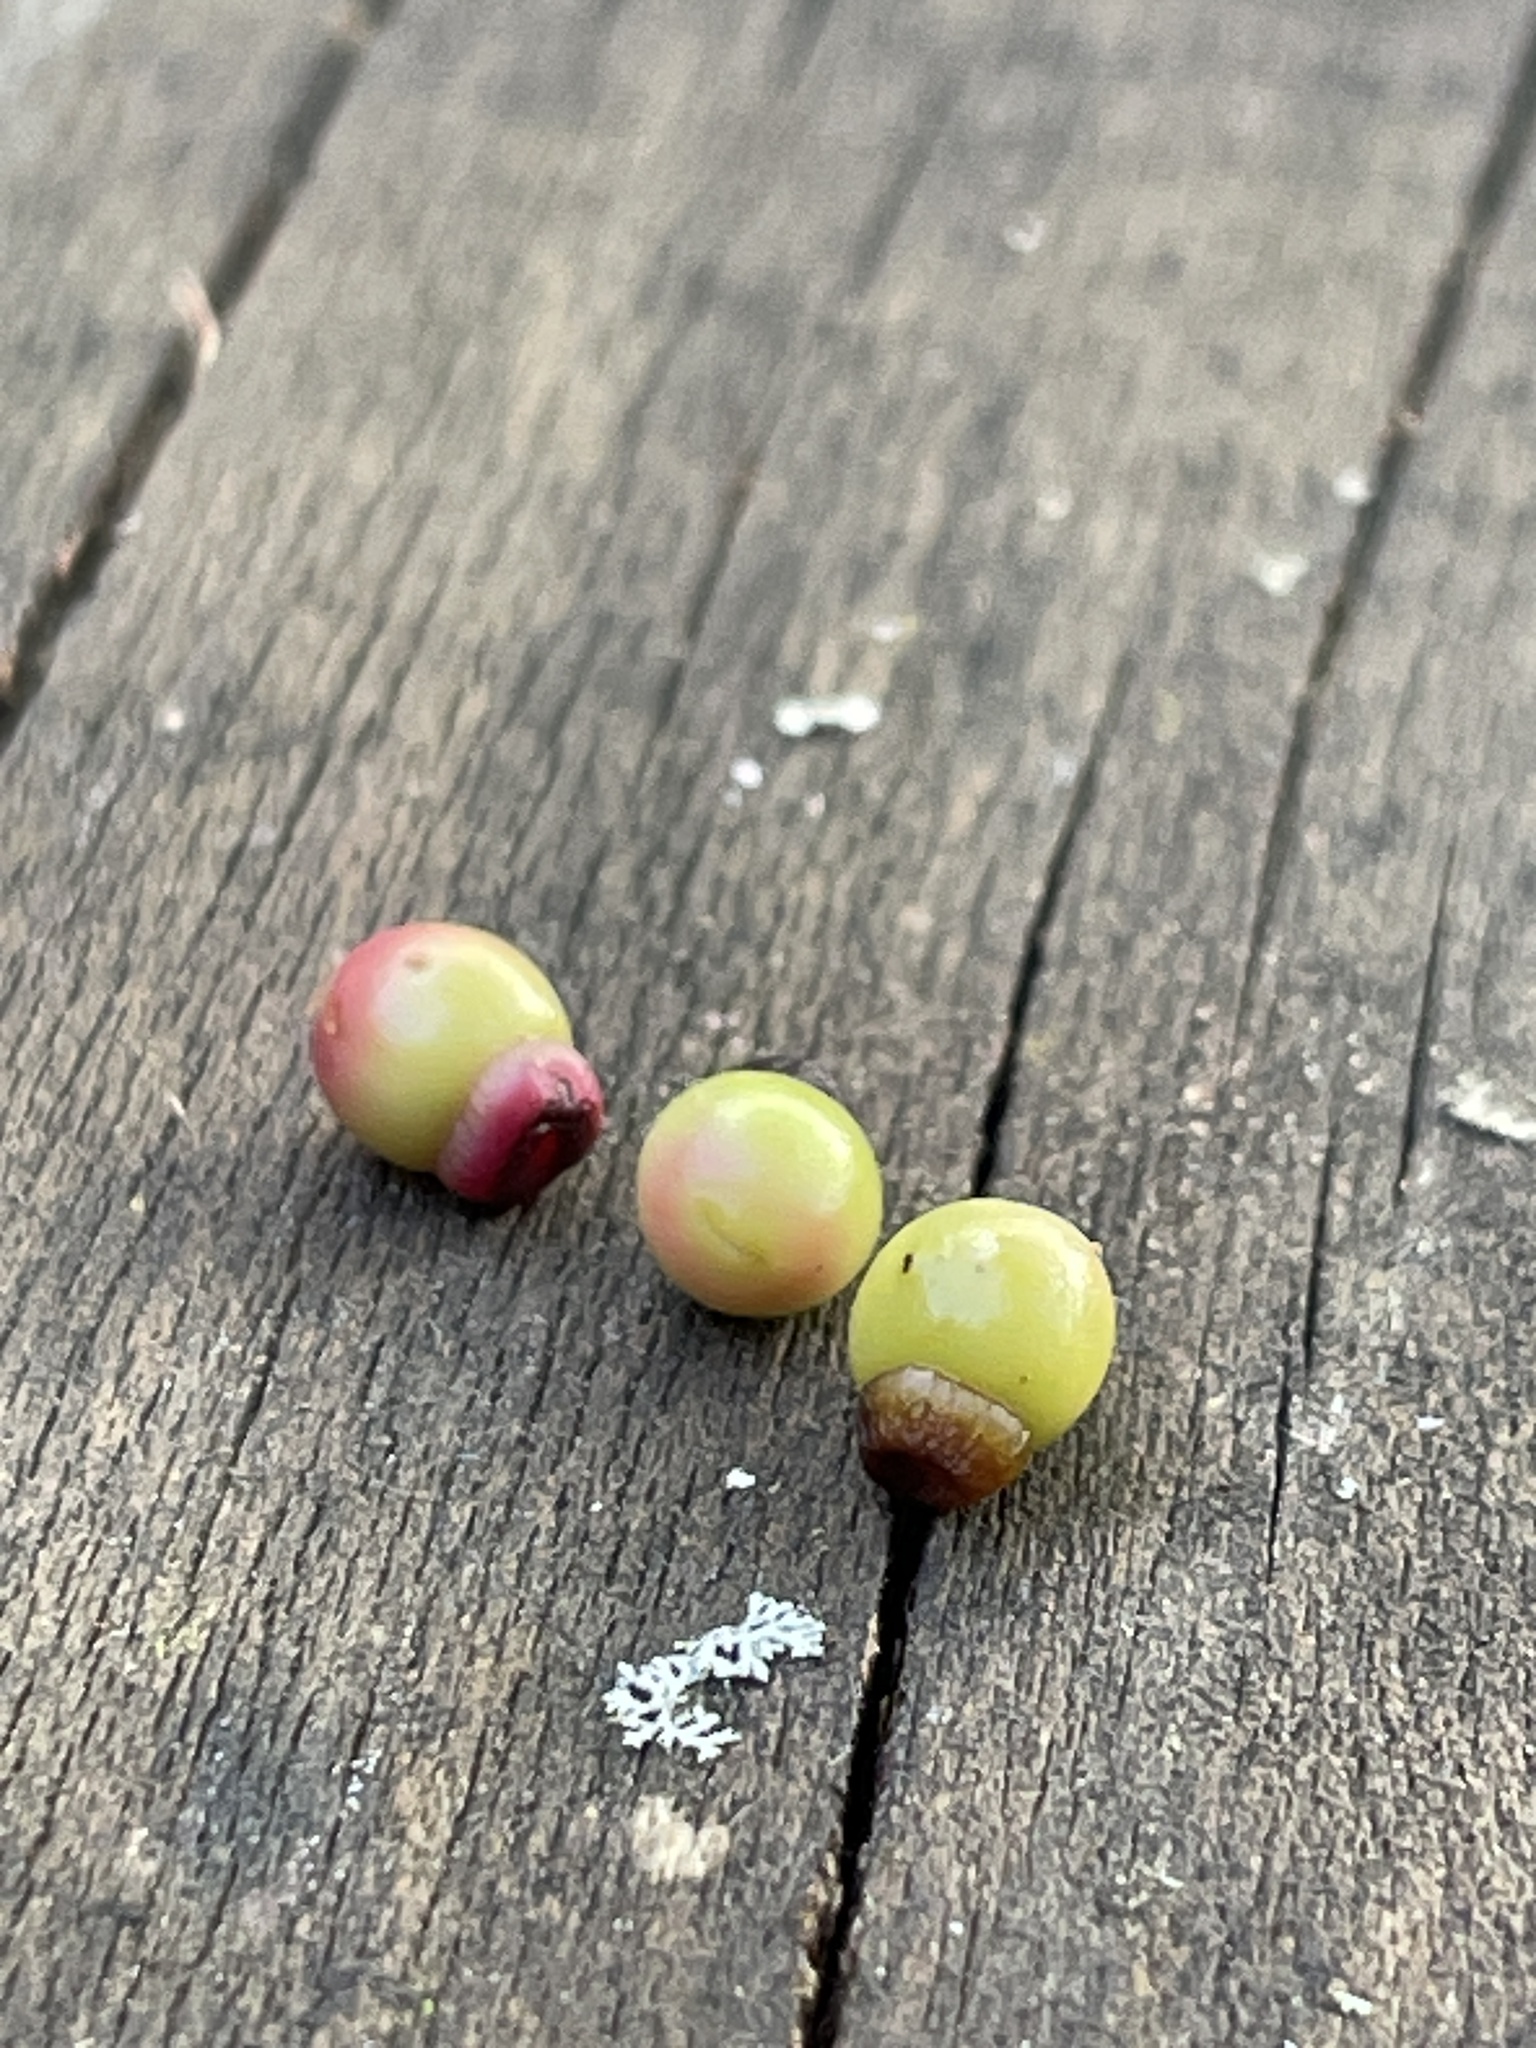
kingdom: Animalia
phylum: Arthropoda
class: Insecta
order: Hymenoptera
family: Cynipidae
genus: Kokkocynips
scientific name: Kokkocynips rileyi
